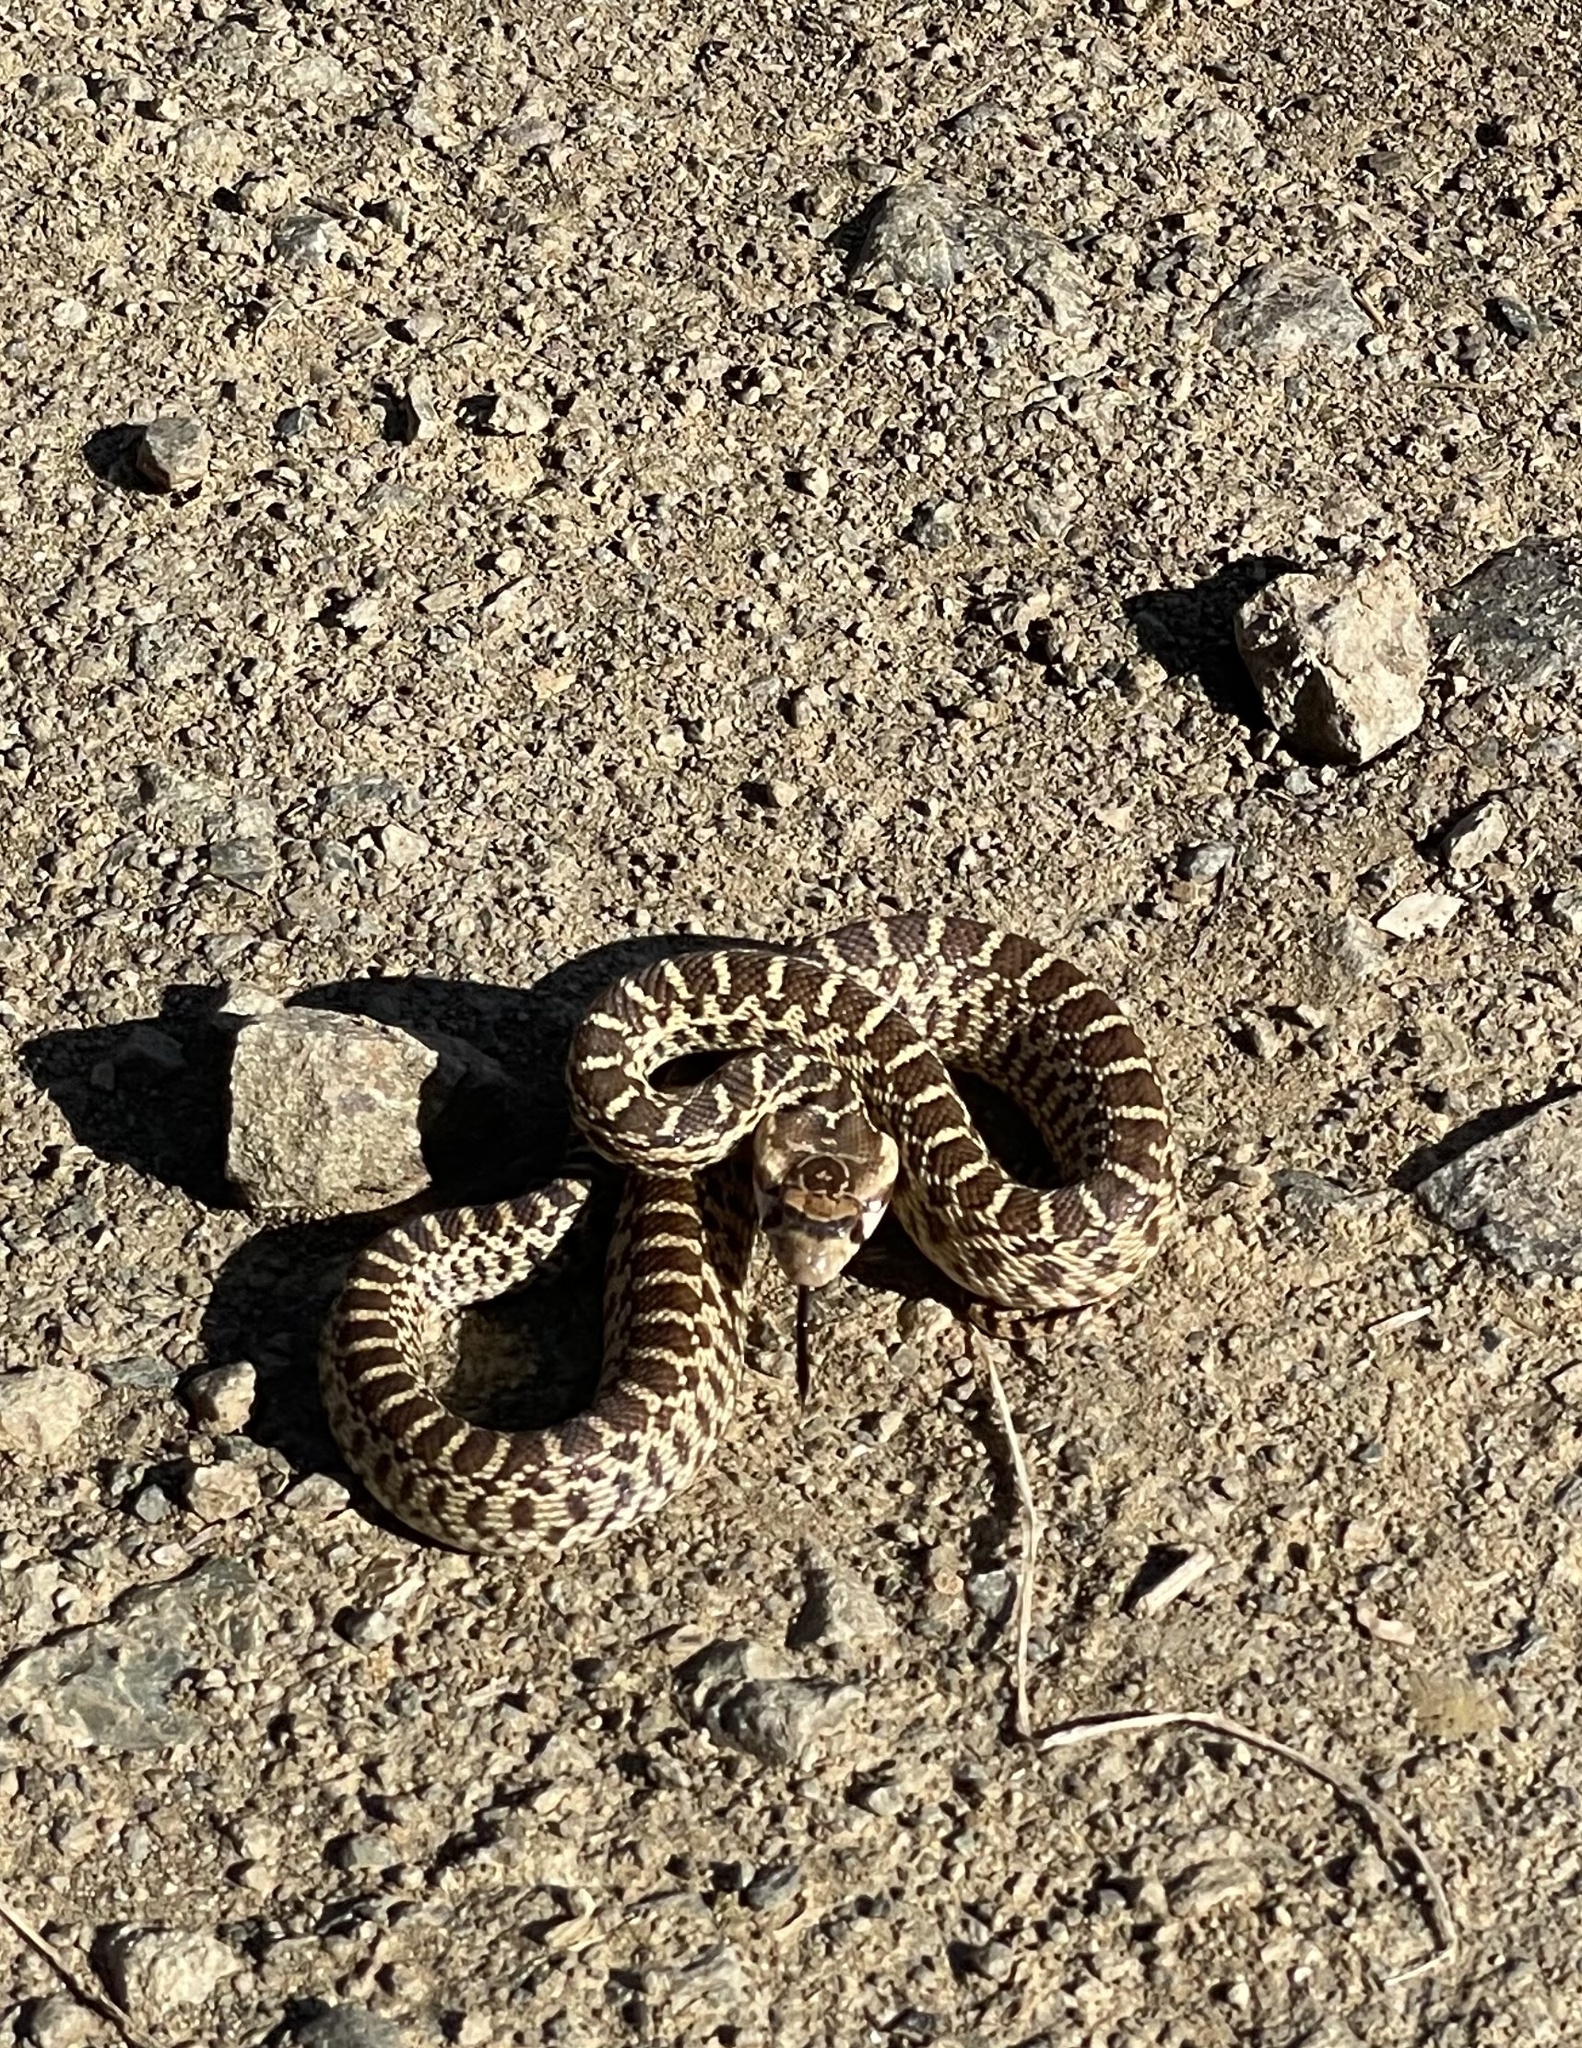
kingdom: Animalia
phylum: Chordata
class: Squamata
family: Colubridae
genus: Pituophis
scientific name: Pituophis catenifer
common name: Gopher snake
